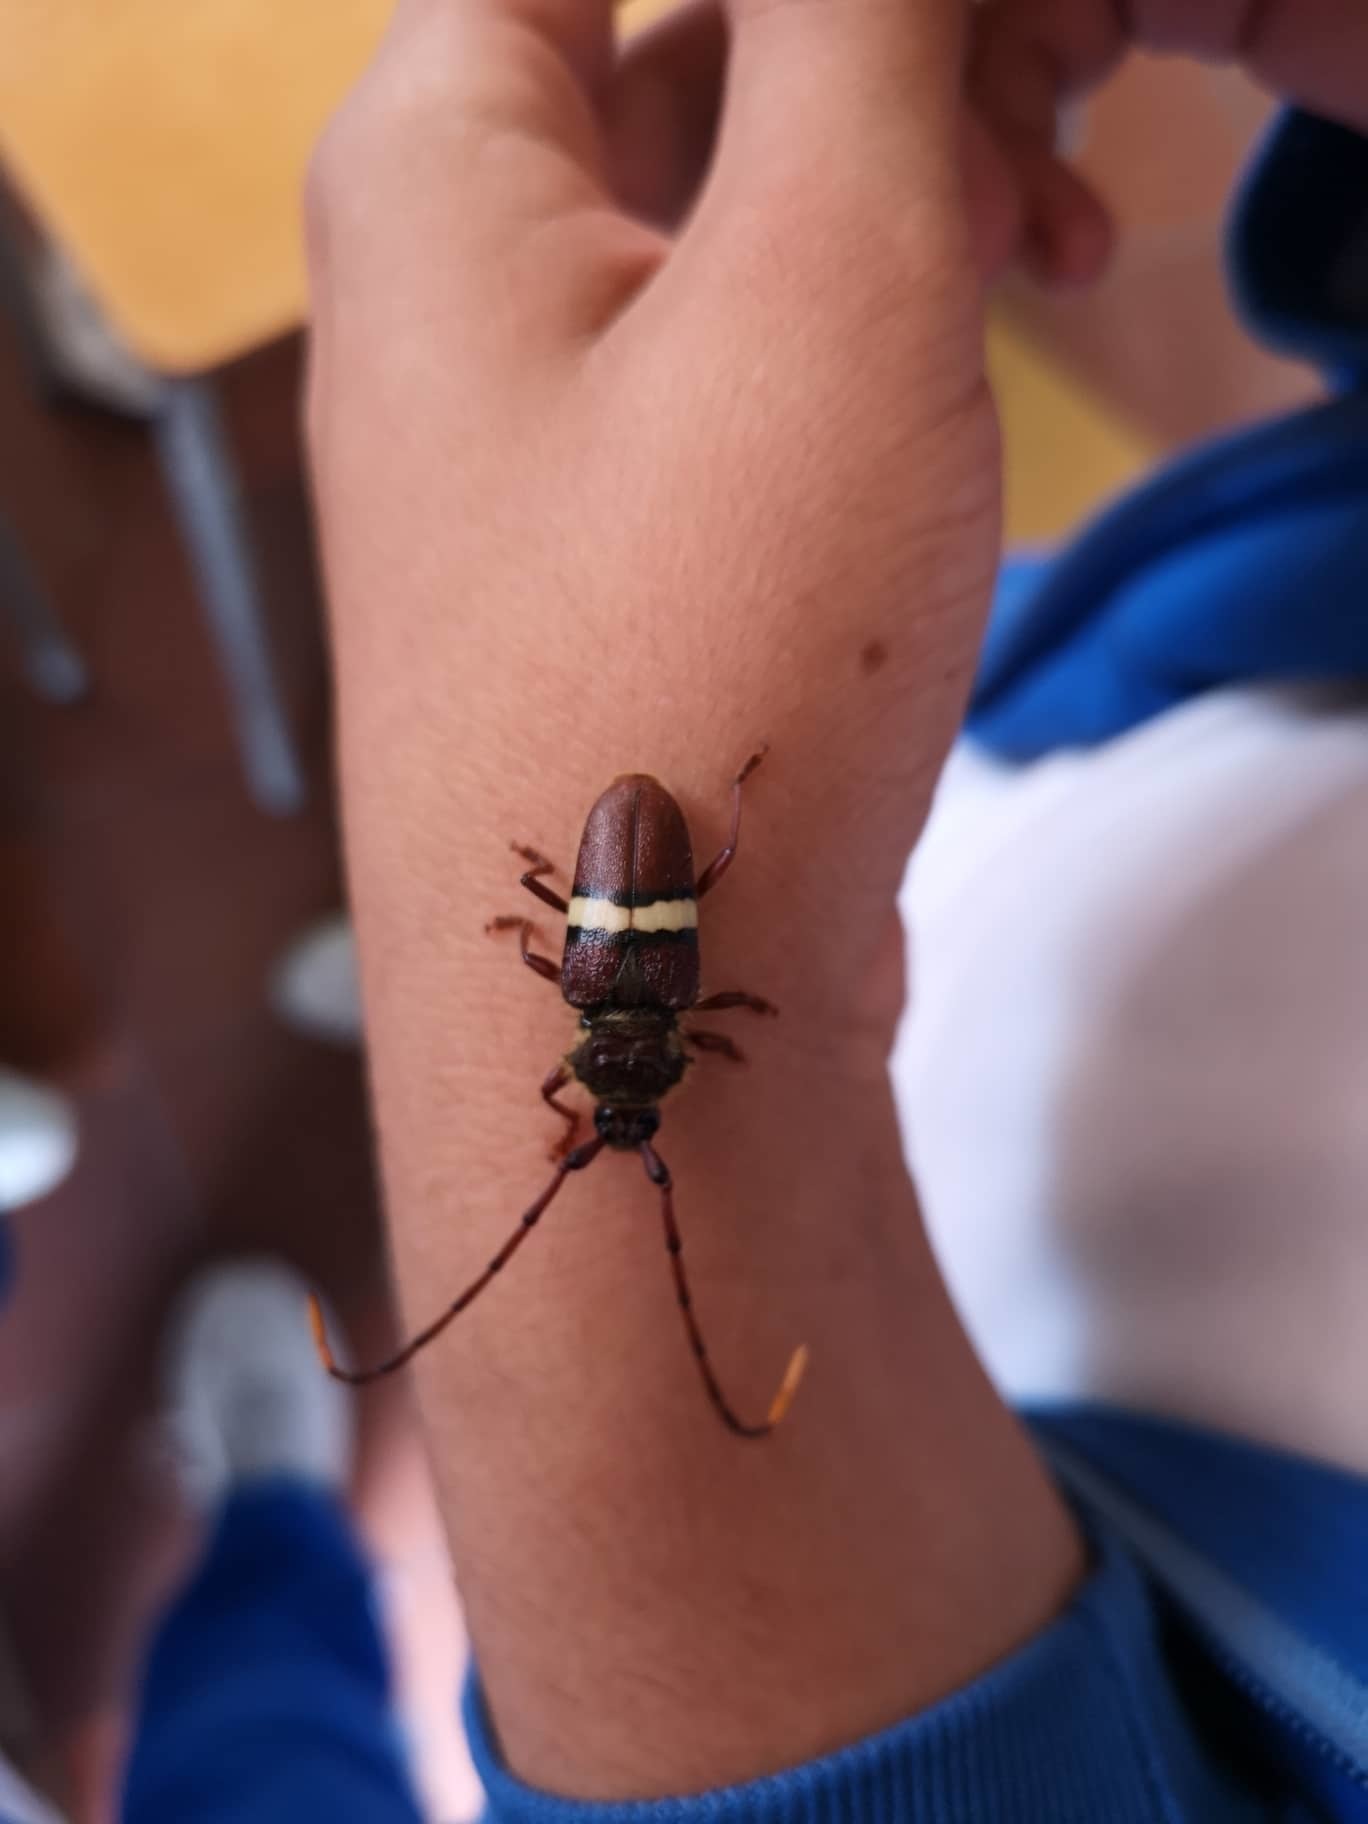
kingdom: Animalia
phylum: Arthropoda
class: Insecta
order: Coleoptera
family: Cerambycidae
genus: Deretrachys
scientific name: Deretrachys juvencus
